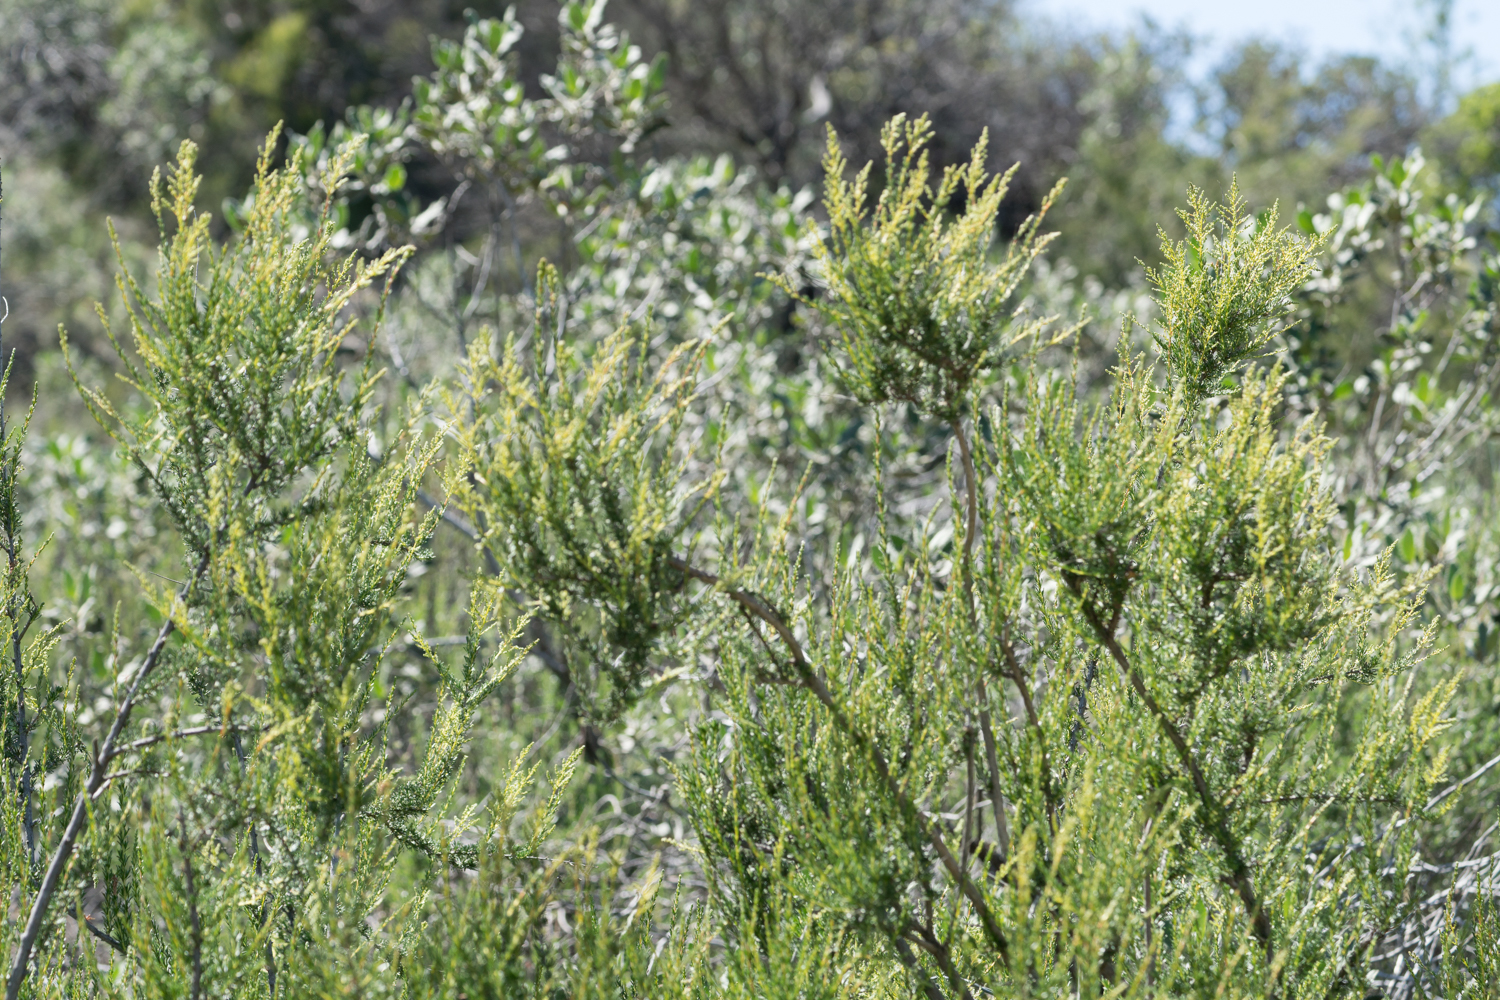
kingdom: Plantae
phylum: Tracheophyta
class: Magnoliopsida
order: Rosales
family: Rosaceae
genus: Adenostoma
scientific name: Adenostoma fasciculatum
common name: Chamise
